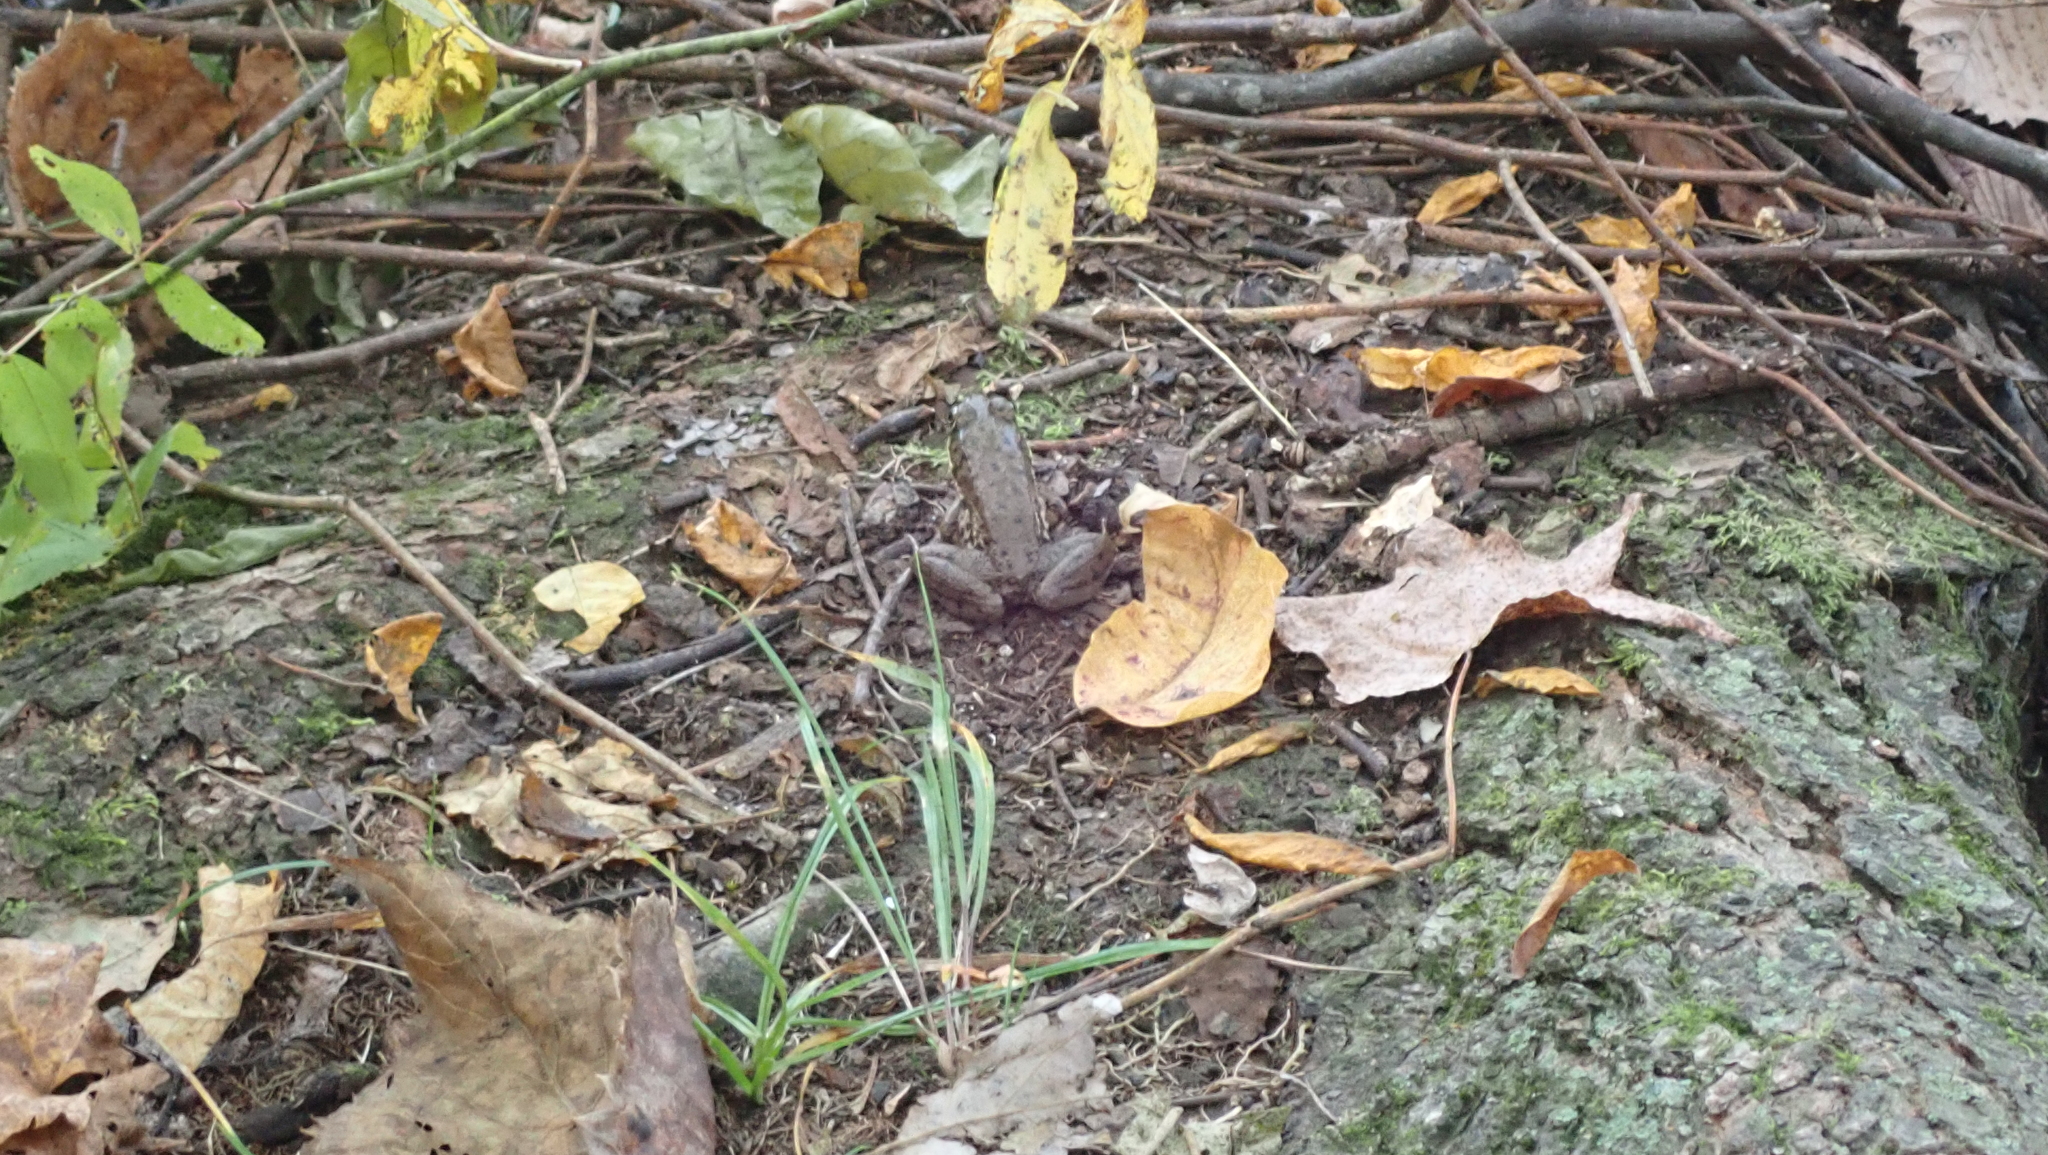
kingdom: Animalia
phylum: Chordata
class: Amphibia
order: Anura
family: Ranidae
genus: Lithobates
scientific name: Lithobates clamitans
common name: Green frog
